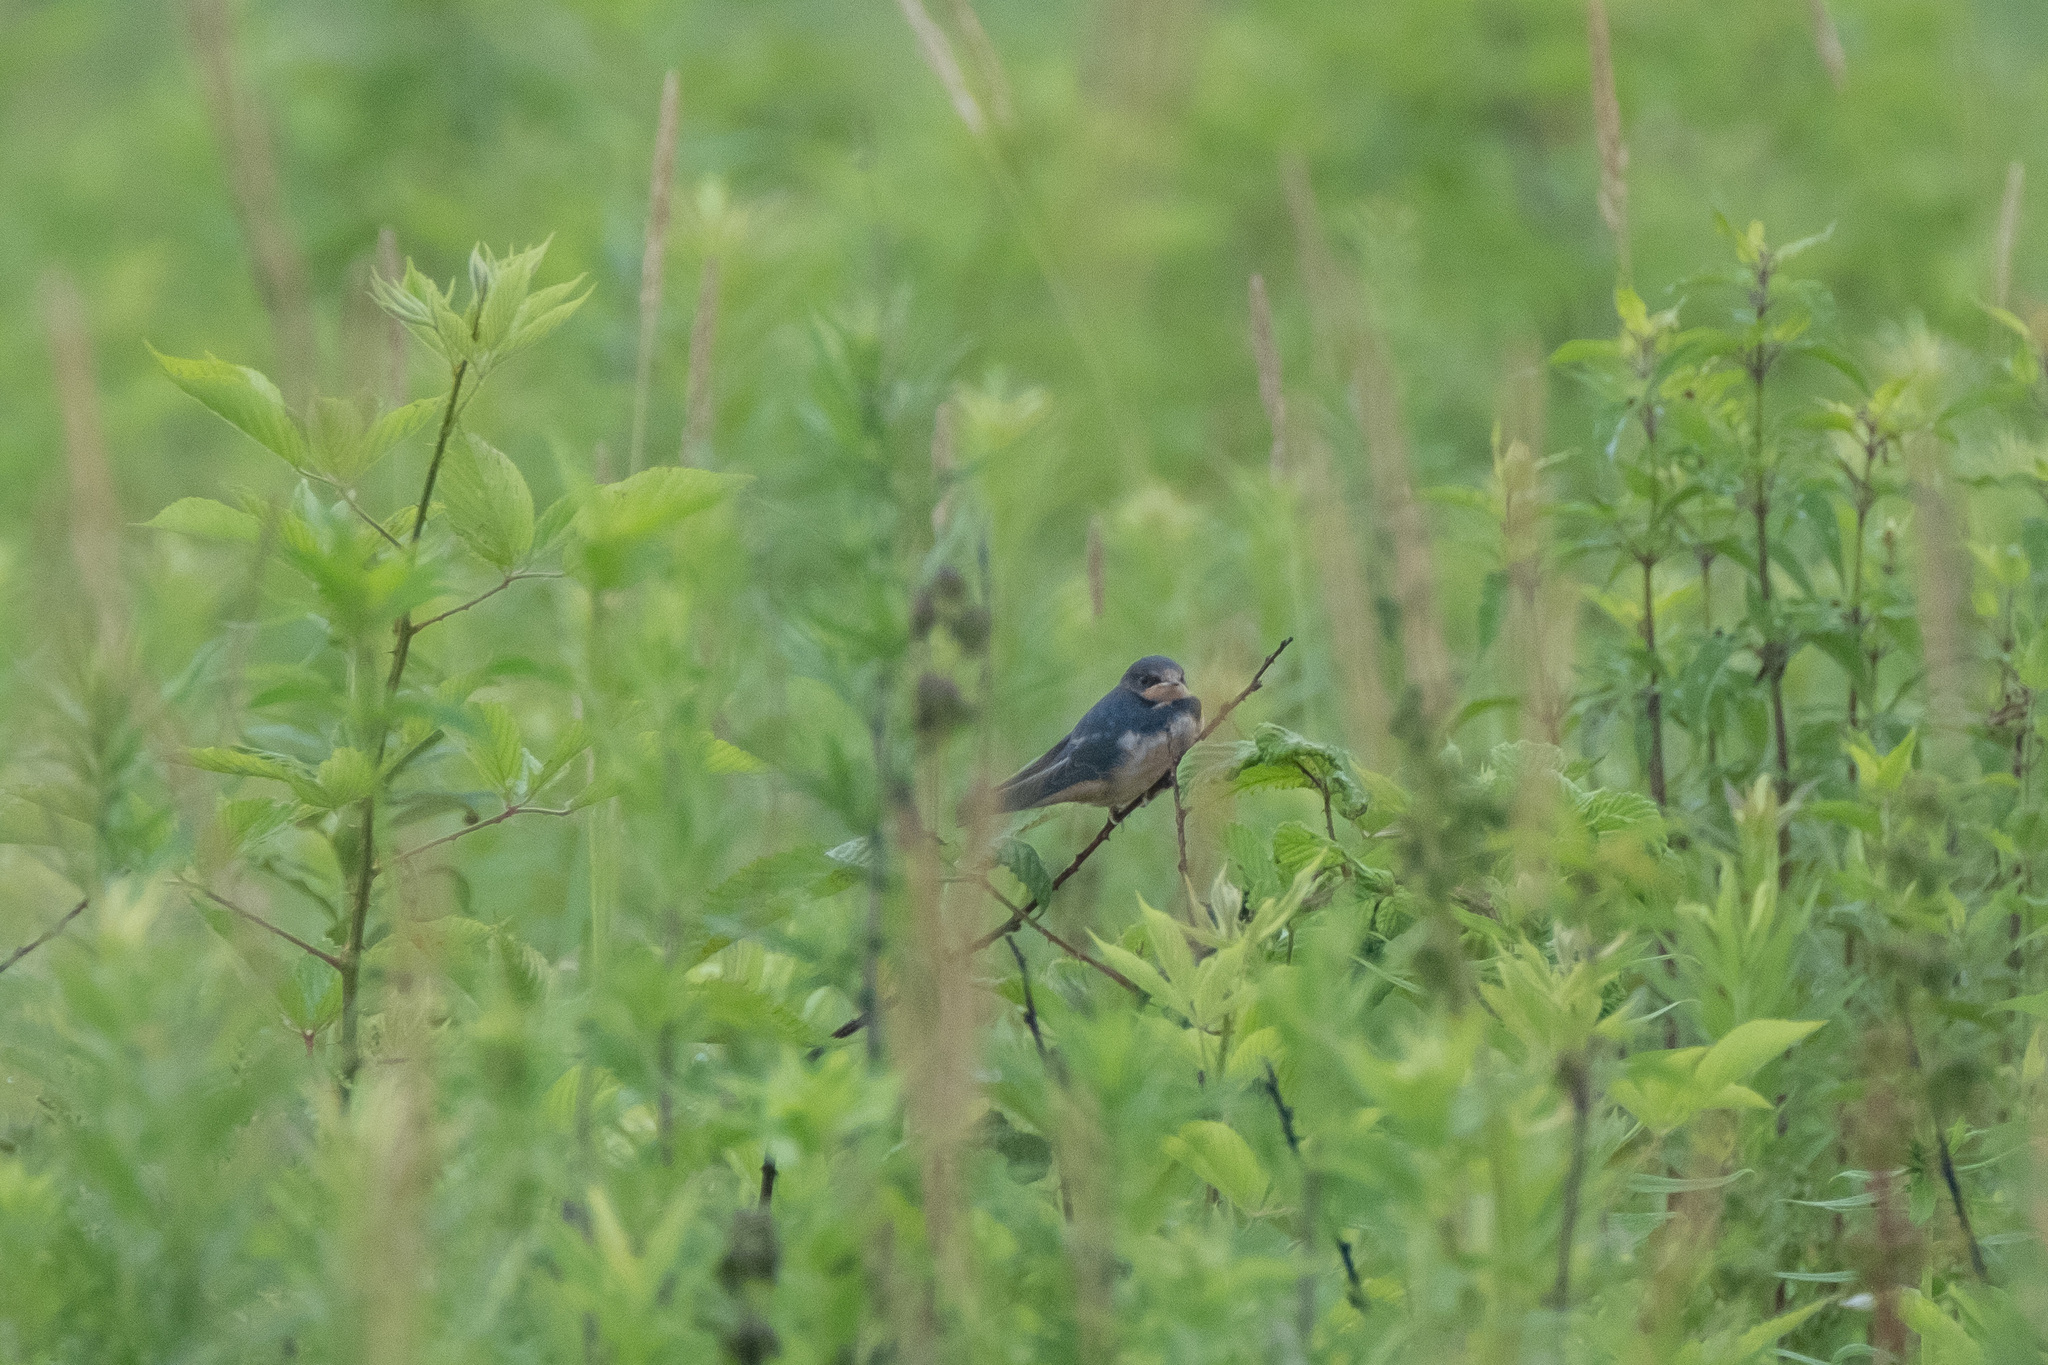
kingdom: Animalia
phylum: Chordata
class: Aves
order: Passeriformes
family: Hirundinidae
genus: Hirundo
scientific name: Hirundo rustica
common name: Barn swallow
